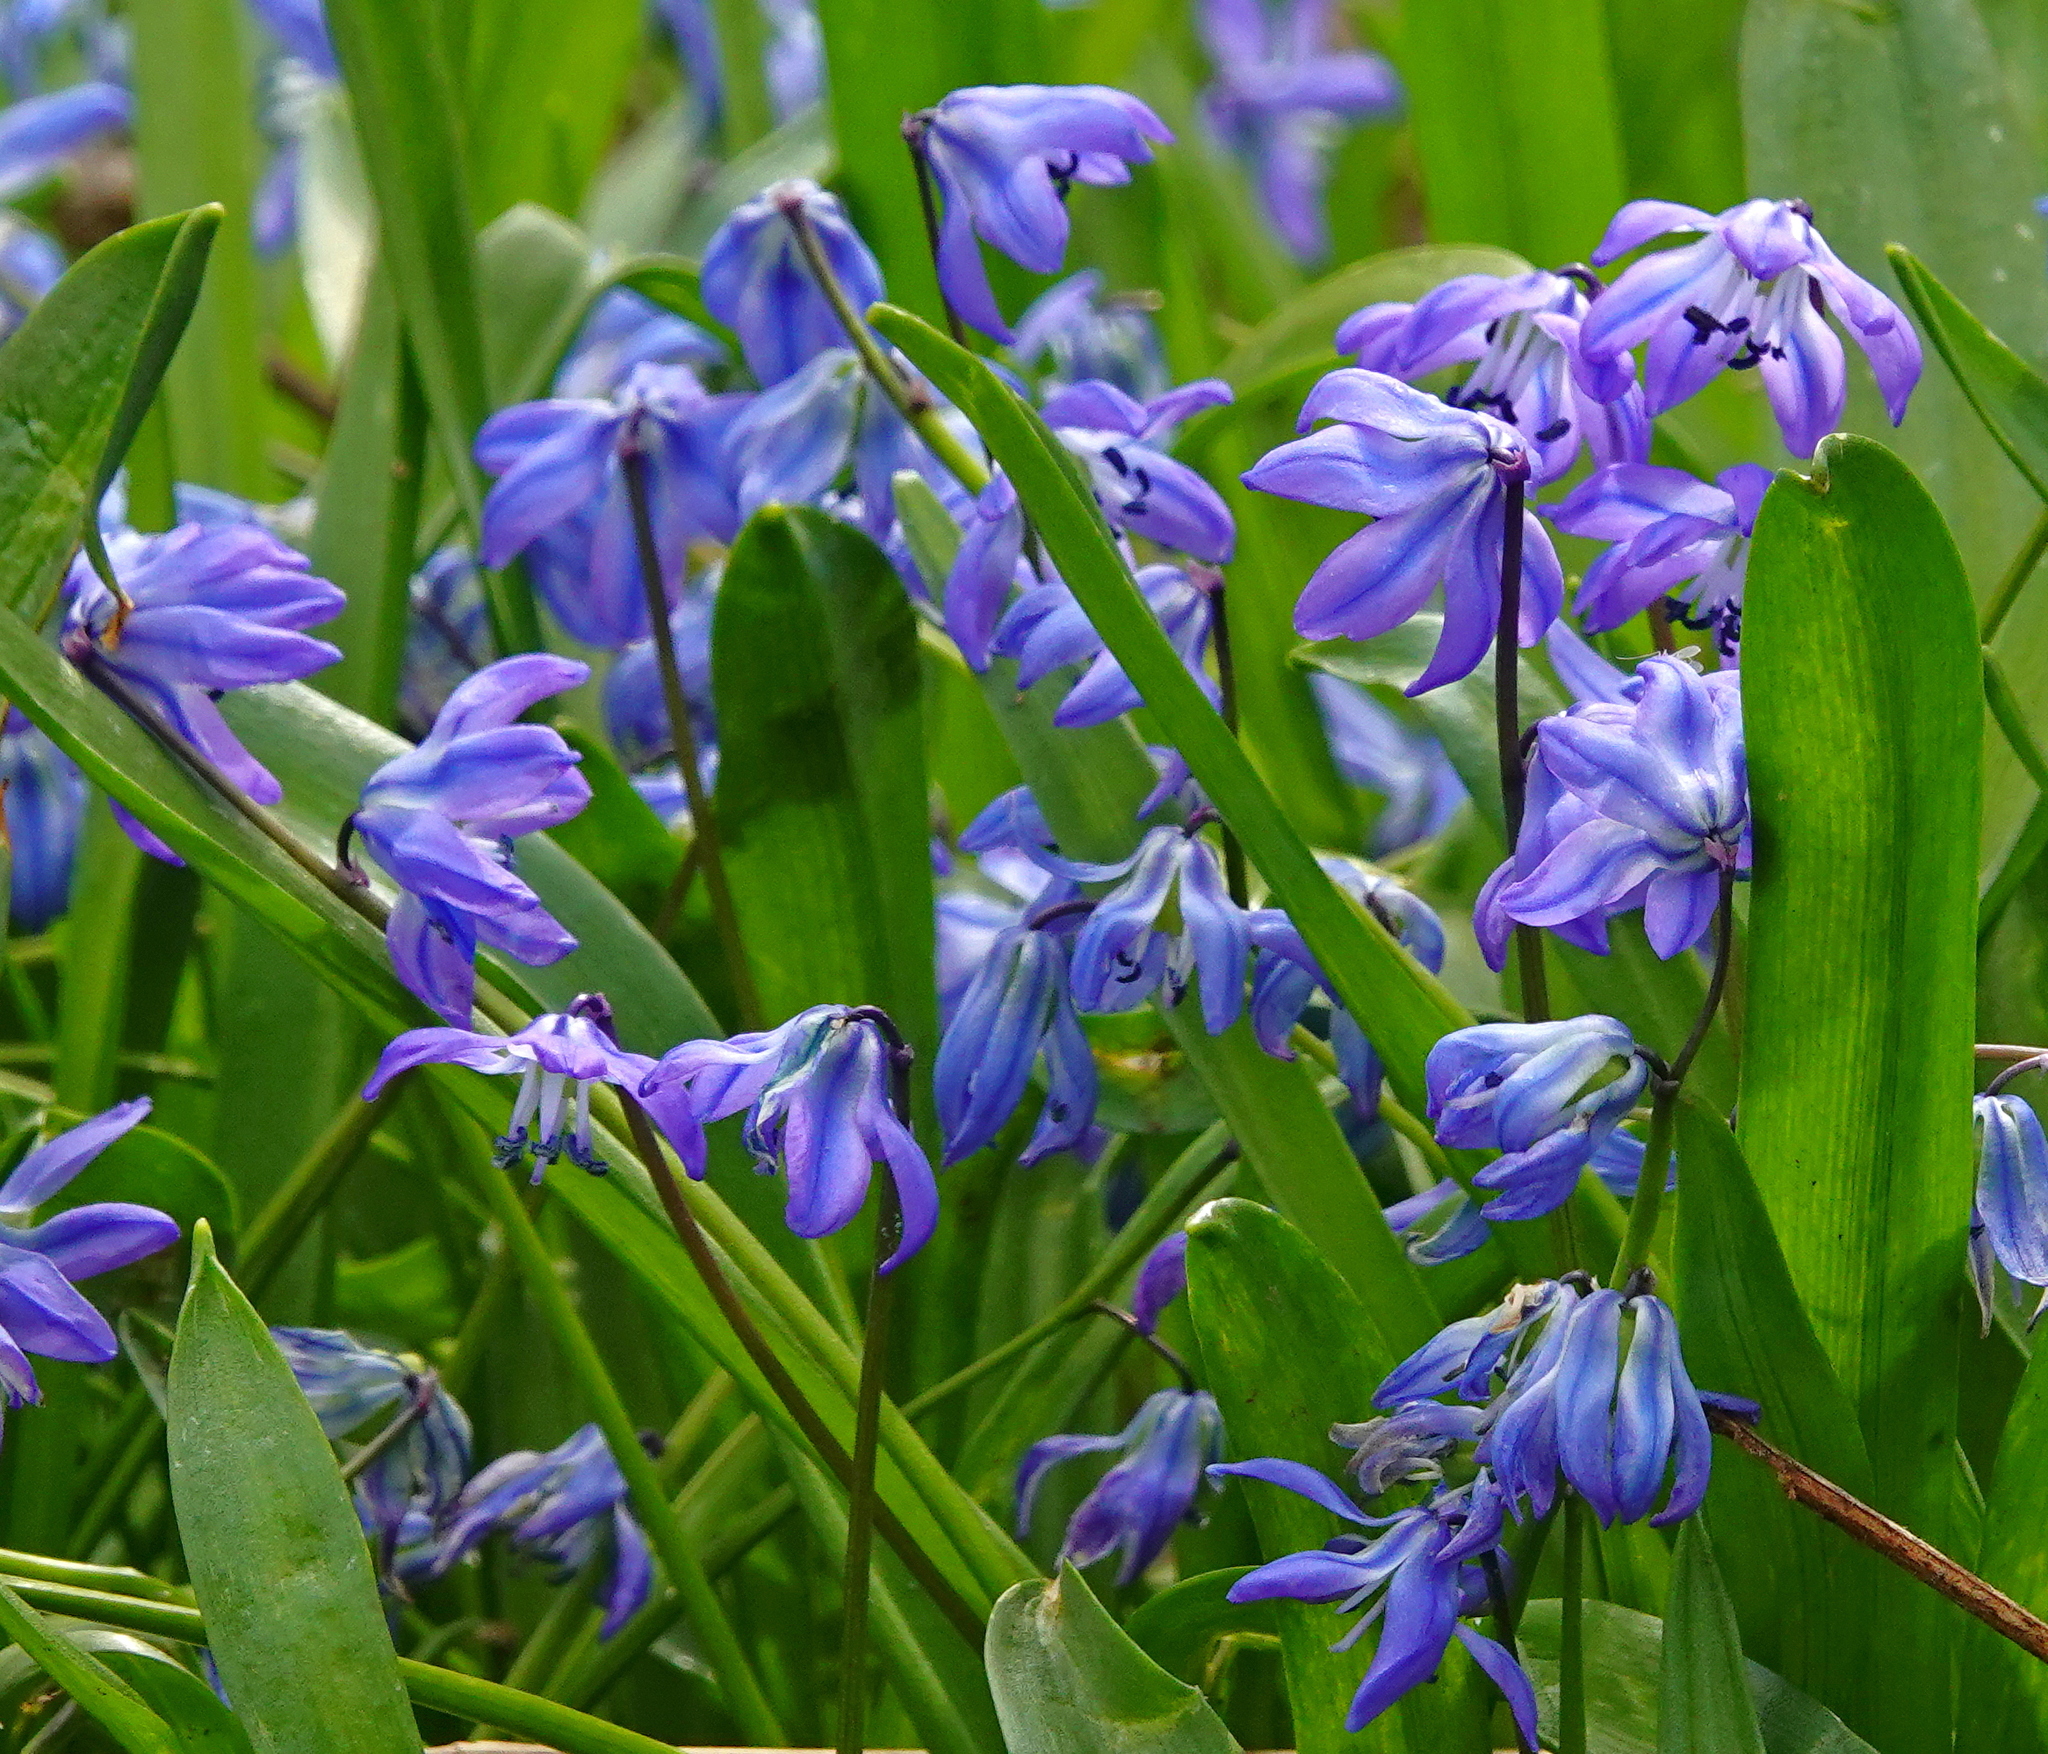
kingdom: Plantae
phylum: Tracheophyta
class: Liliopsida
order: Asparagales
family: Asparagaceae
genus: Scilla
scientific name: Scilla siberica
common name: Siberian squill
